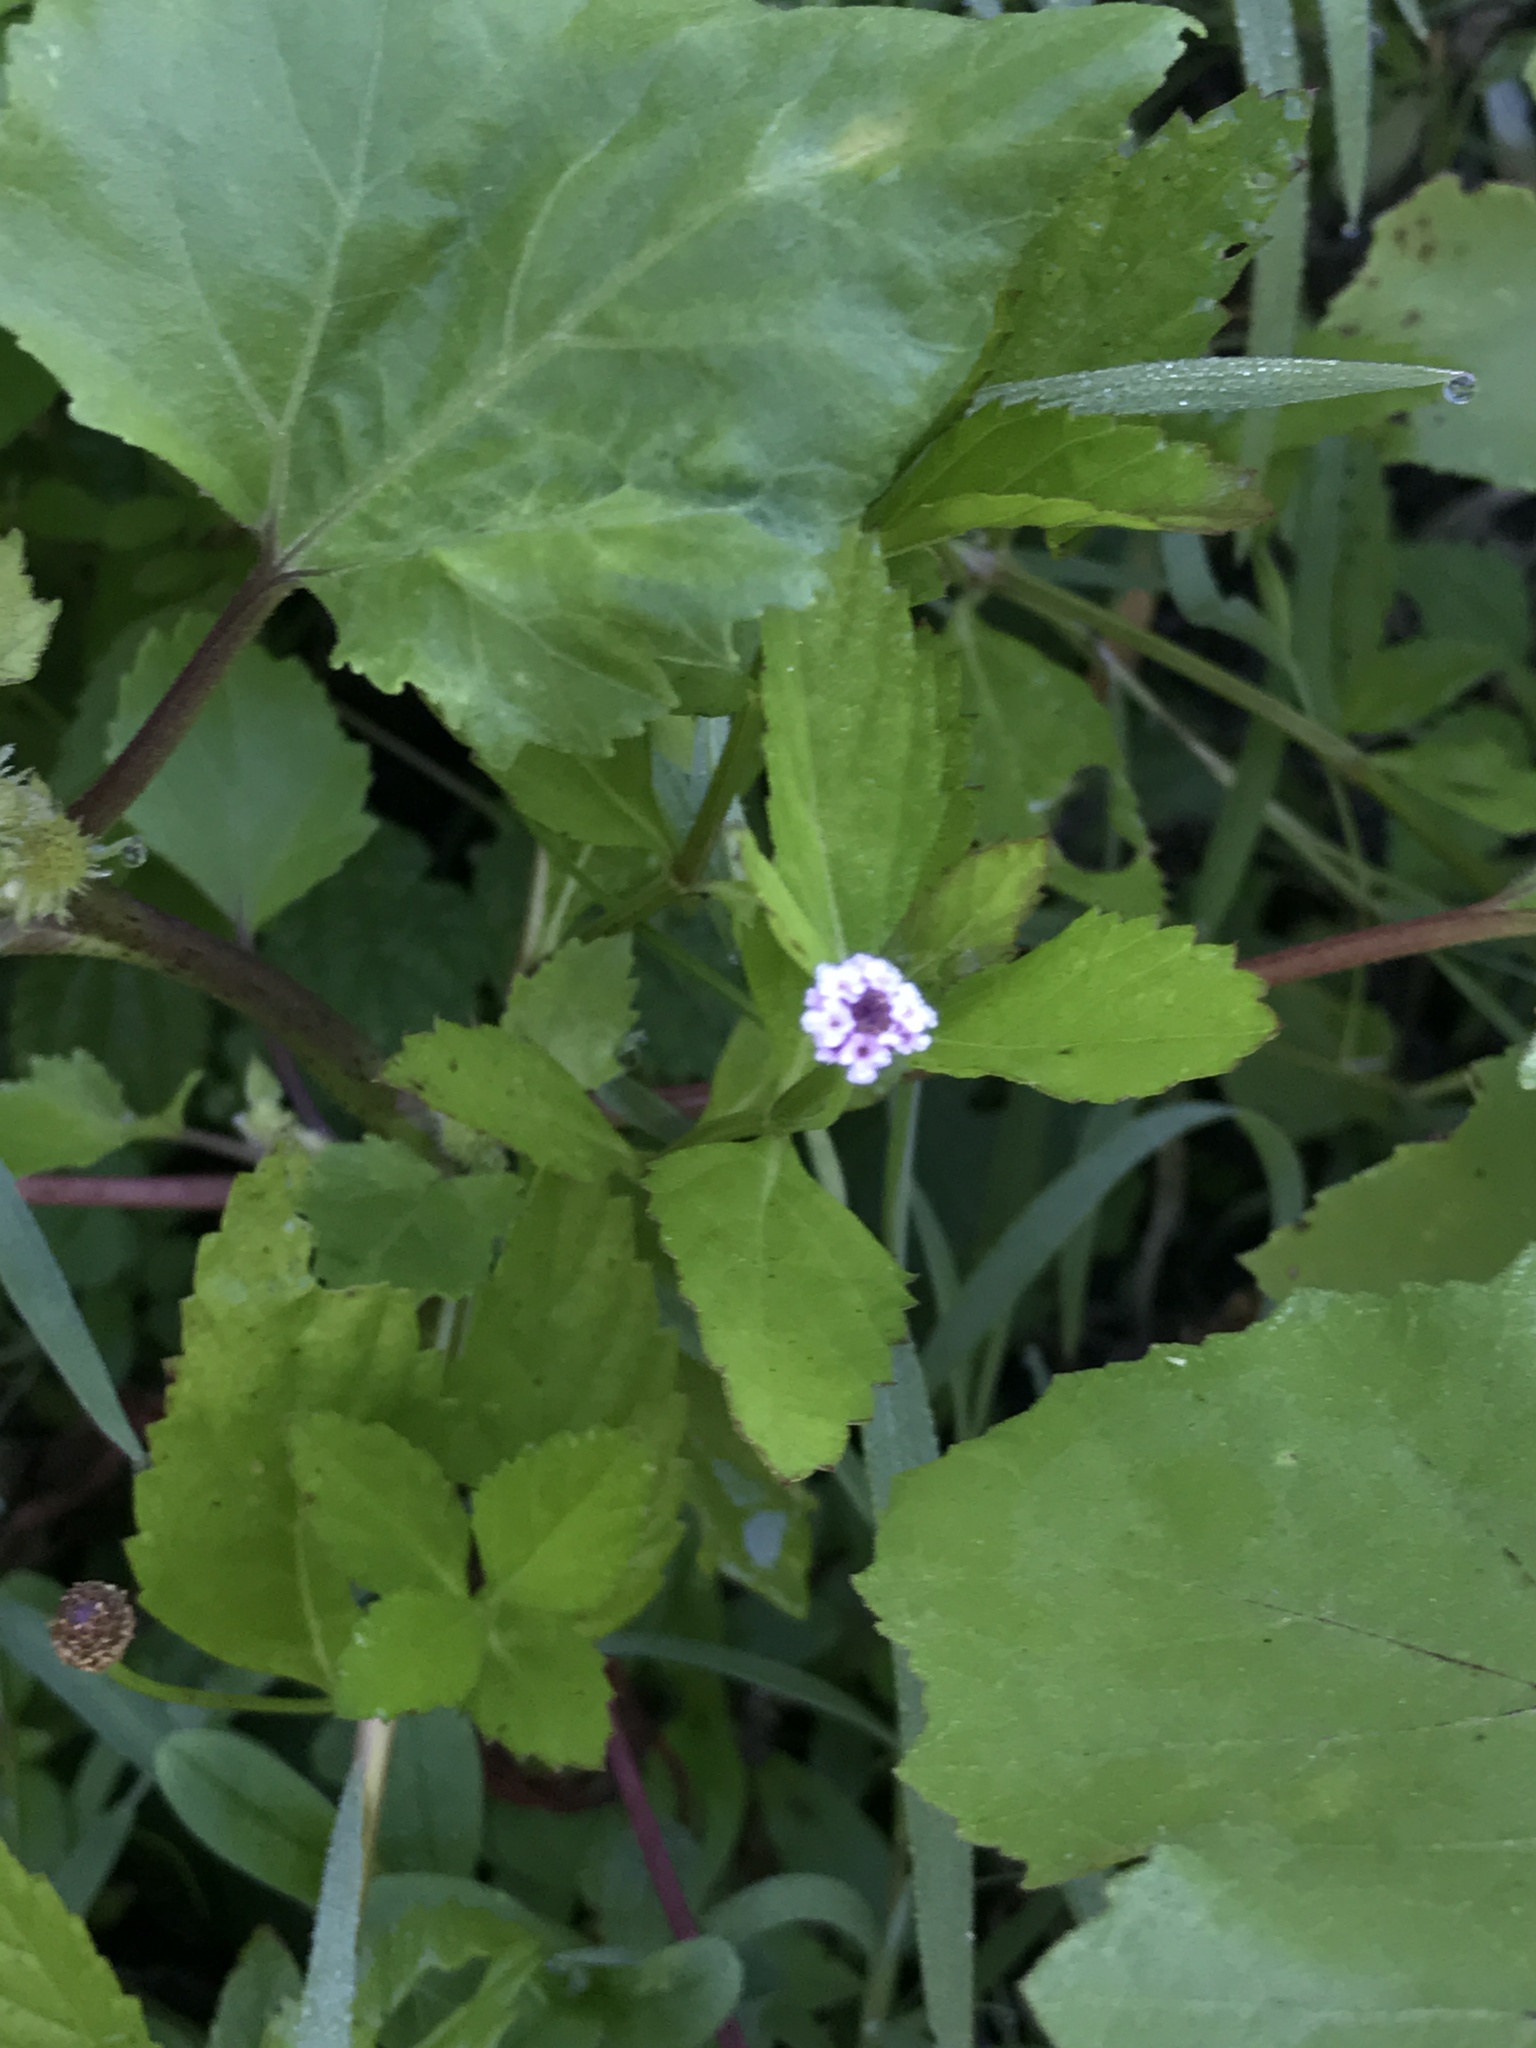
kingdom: Plantae
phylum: Tracheophyta
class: Magnoliopsida
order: Lamiales
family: Verbenaceae
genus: Phyla
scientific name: Phyla lanceolata
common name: Northern fogfruit
